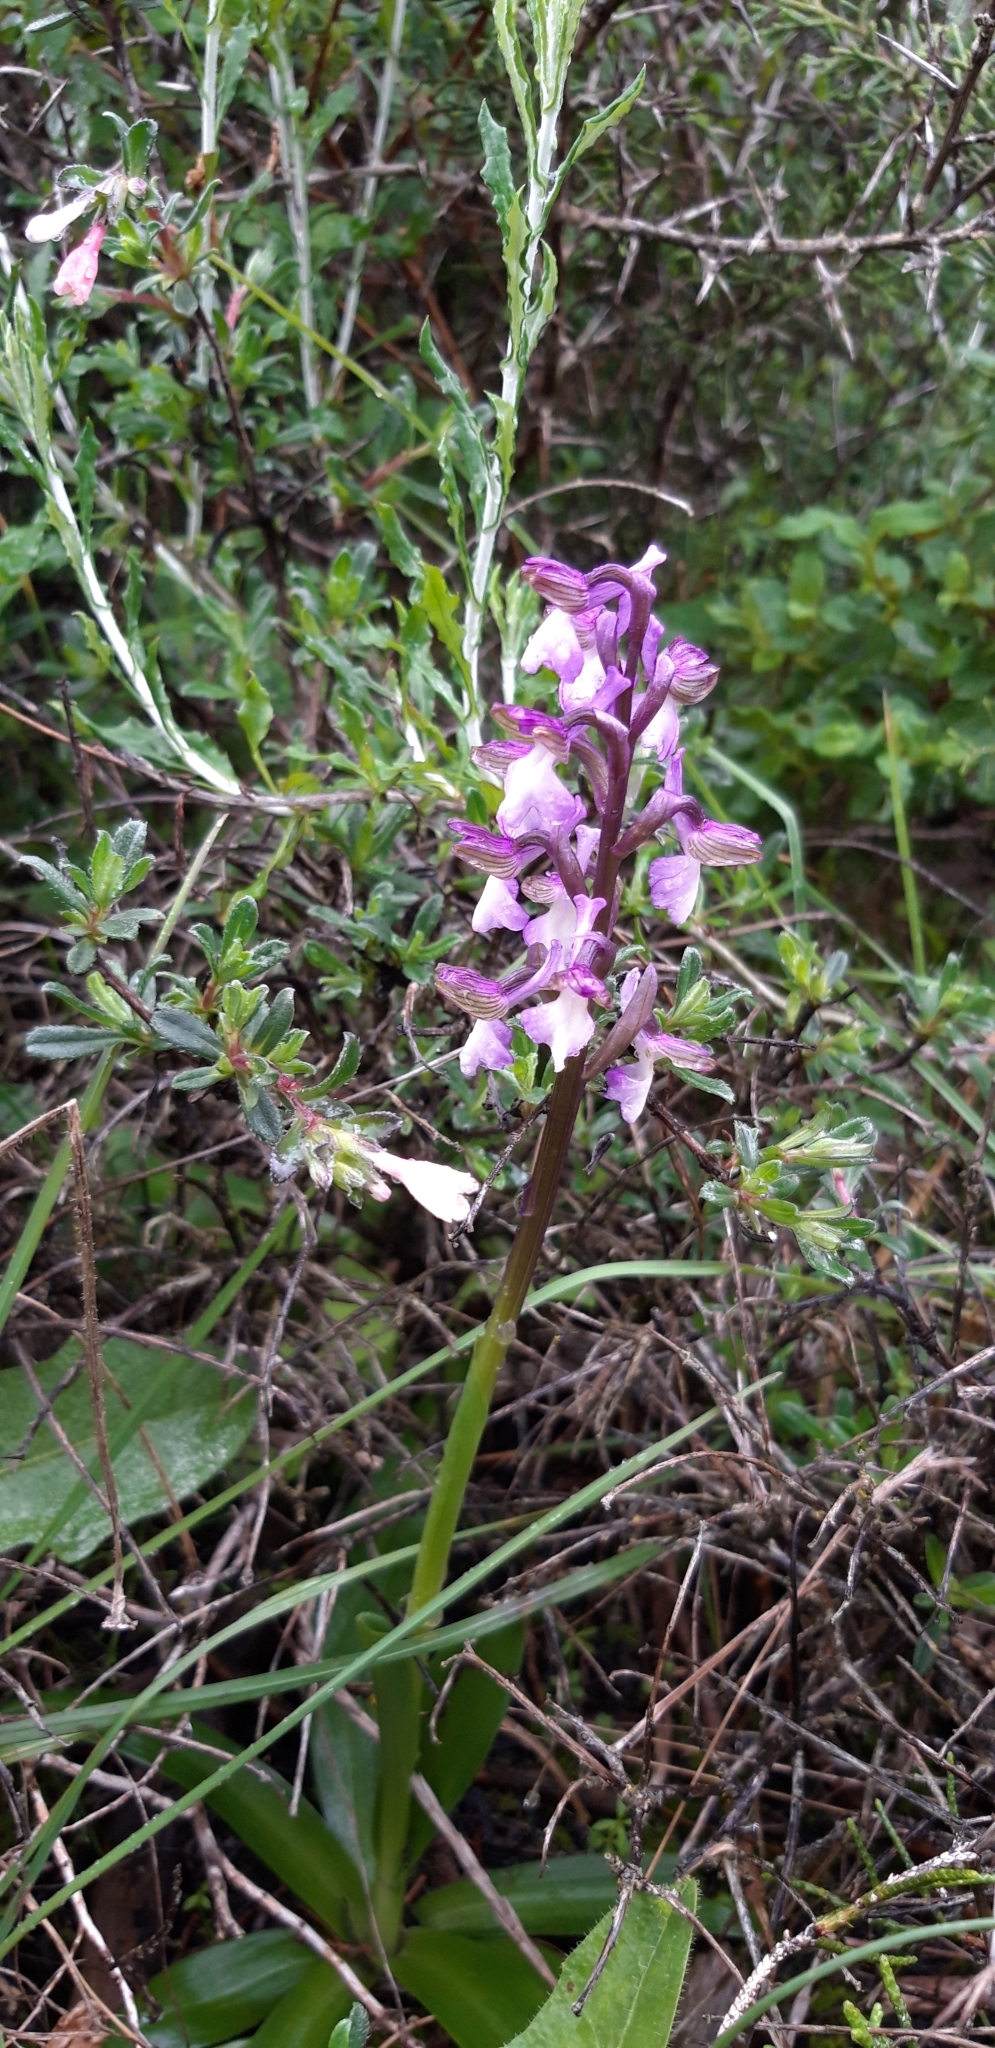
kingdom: Plantae
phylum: Tracheophyta
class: Liliopsida
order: Asparagales
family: Orchidaceae
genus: Anacamptis
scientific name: Anacamptis morio
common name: Green-winged orchid
